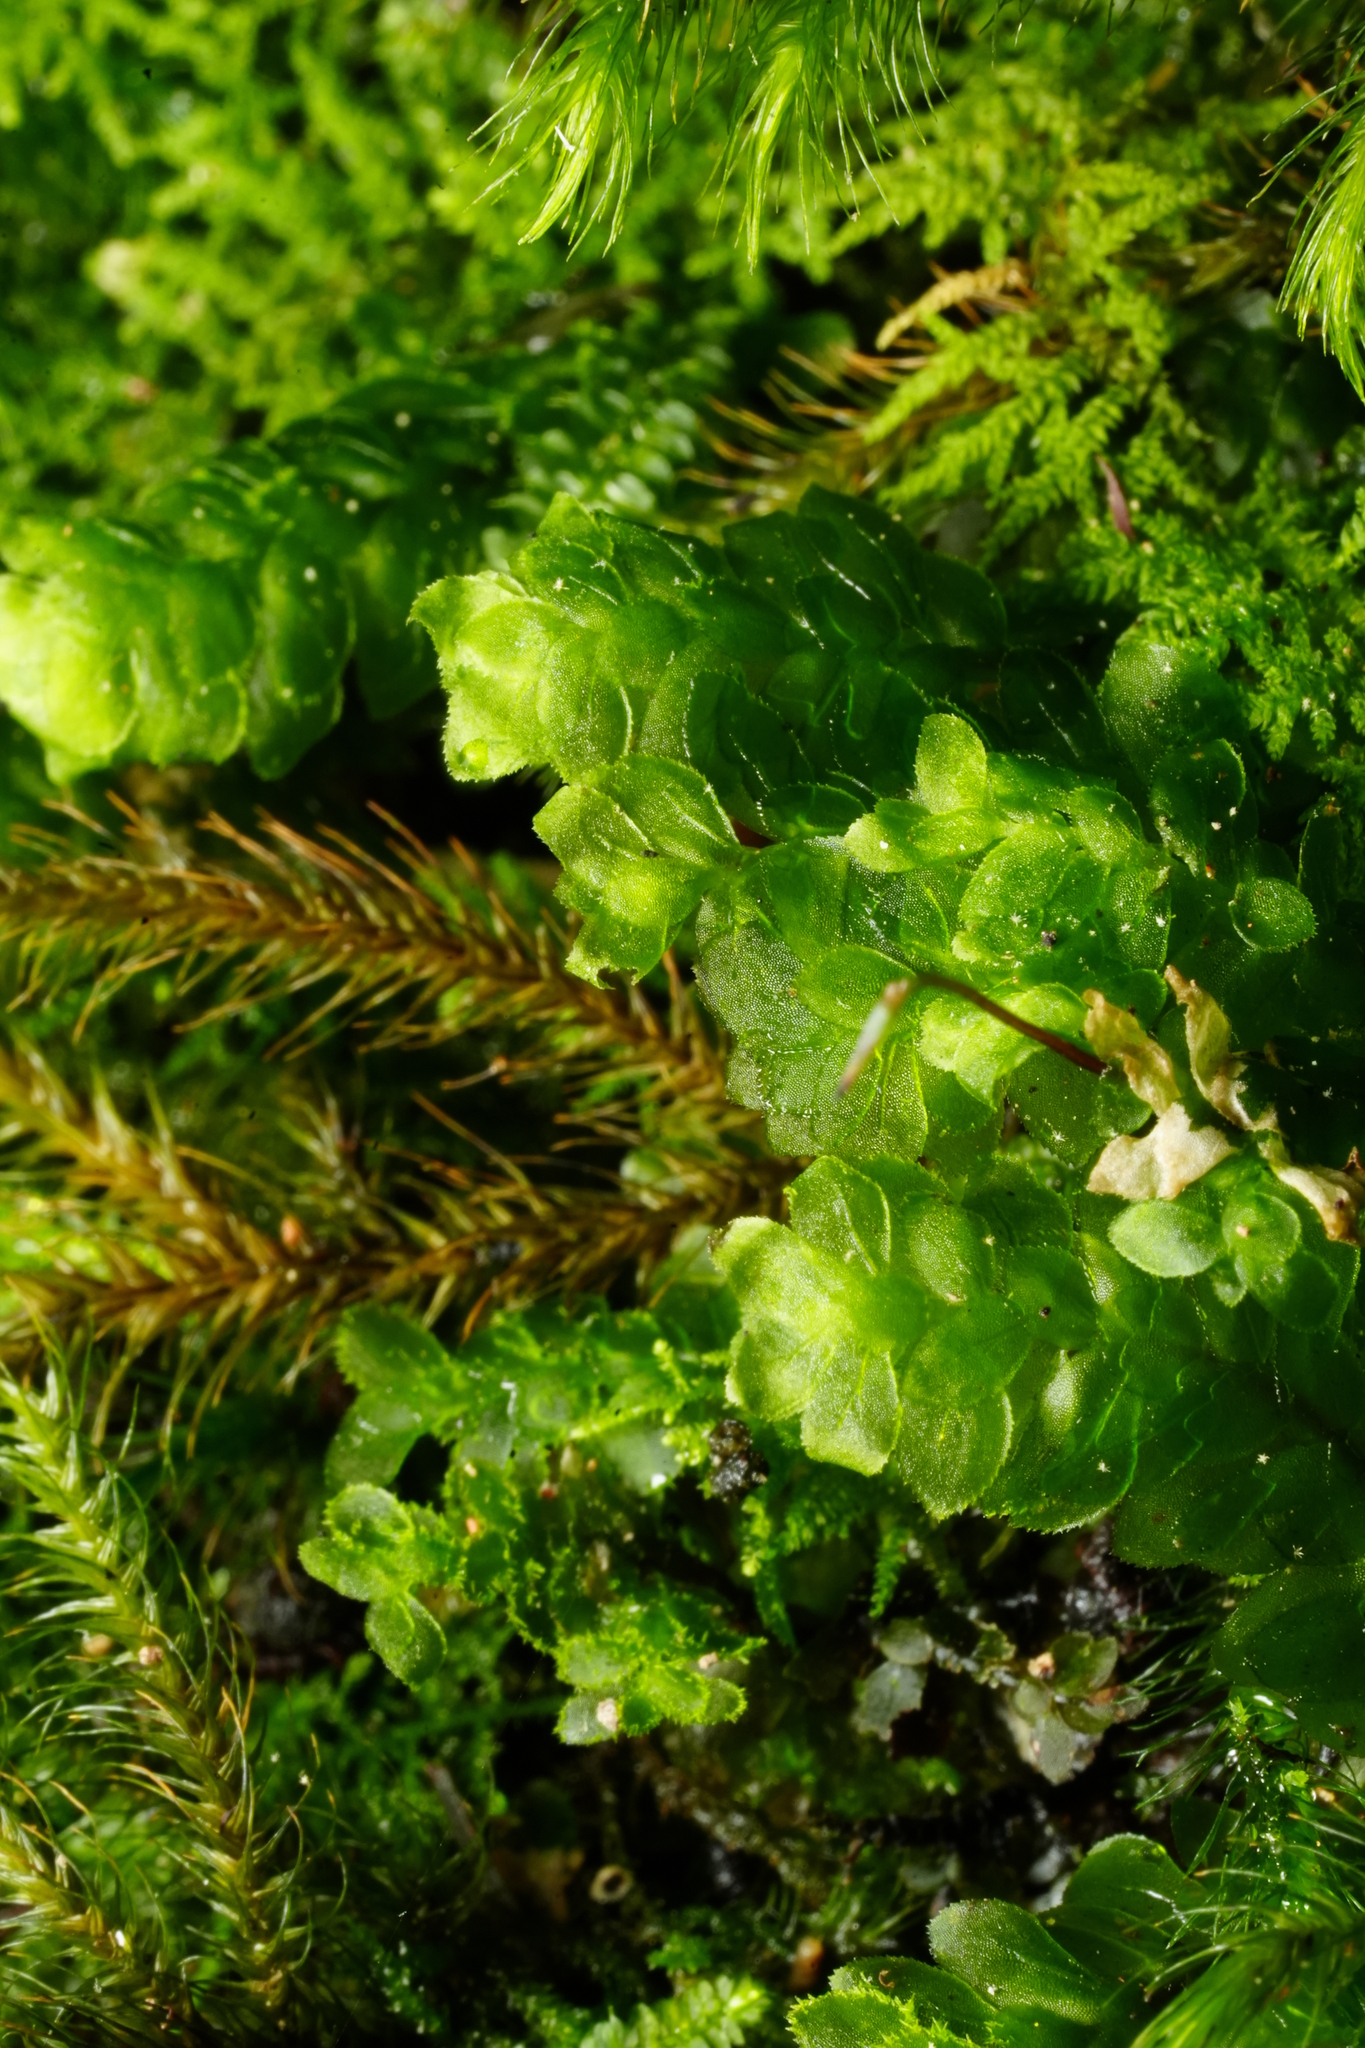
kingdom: Plantae
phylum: Bryophyta
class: Bryopsida
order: Hookeriales
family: Daltoniaceae
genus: Achrophyllum
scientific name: Achrophyllum dentatum
